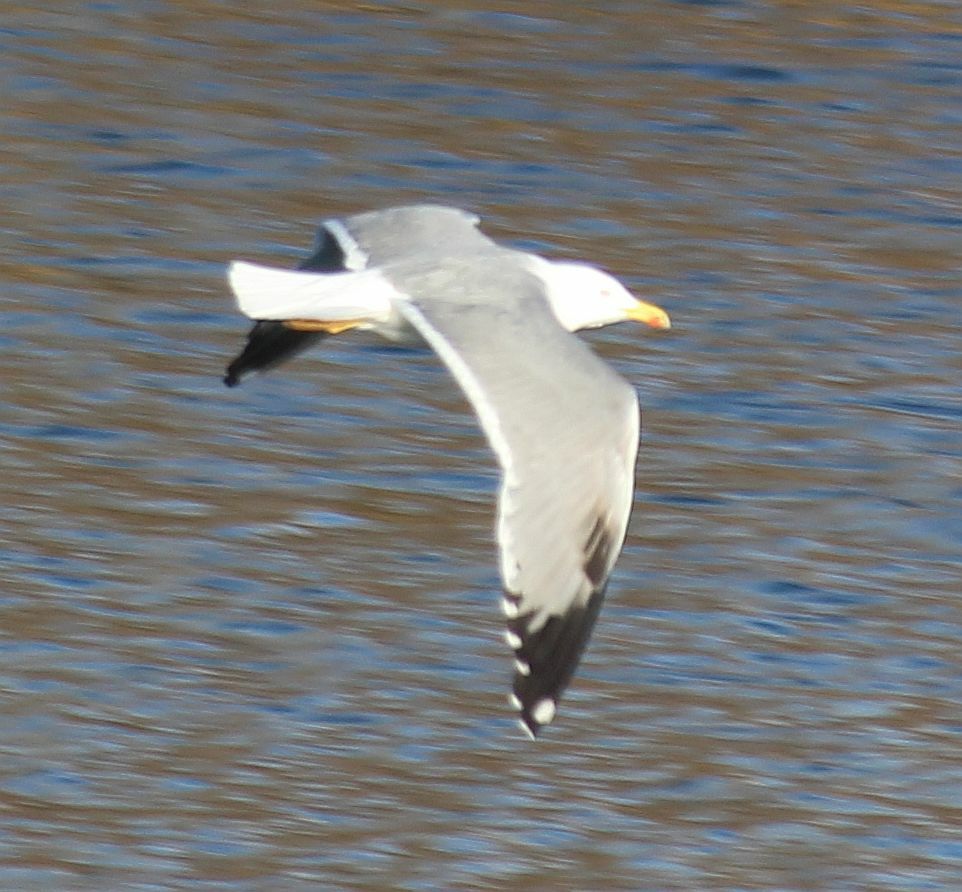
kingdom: Animalia
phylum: Chordata
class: Aves
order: Charadriiformes
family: Laridae
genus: Larus
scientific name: Larus michahellis
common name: Yellow-legged gull
